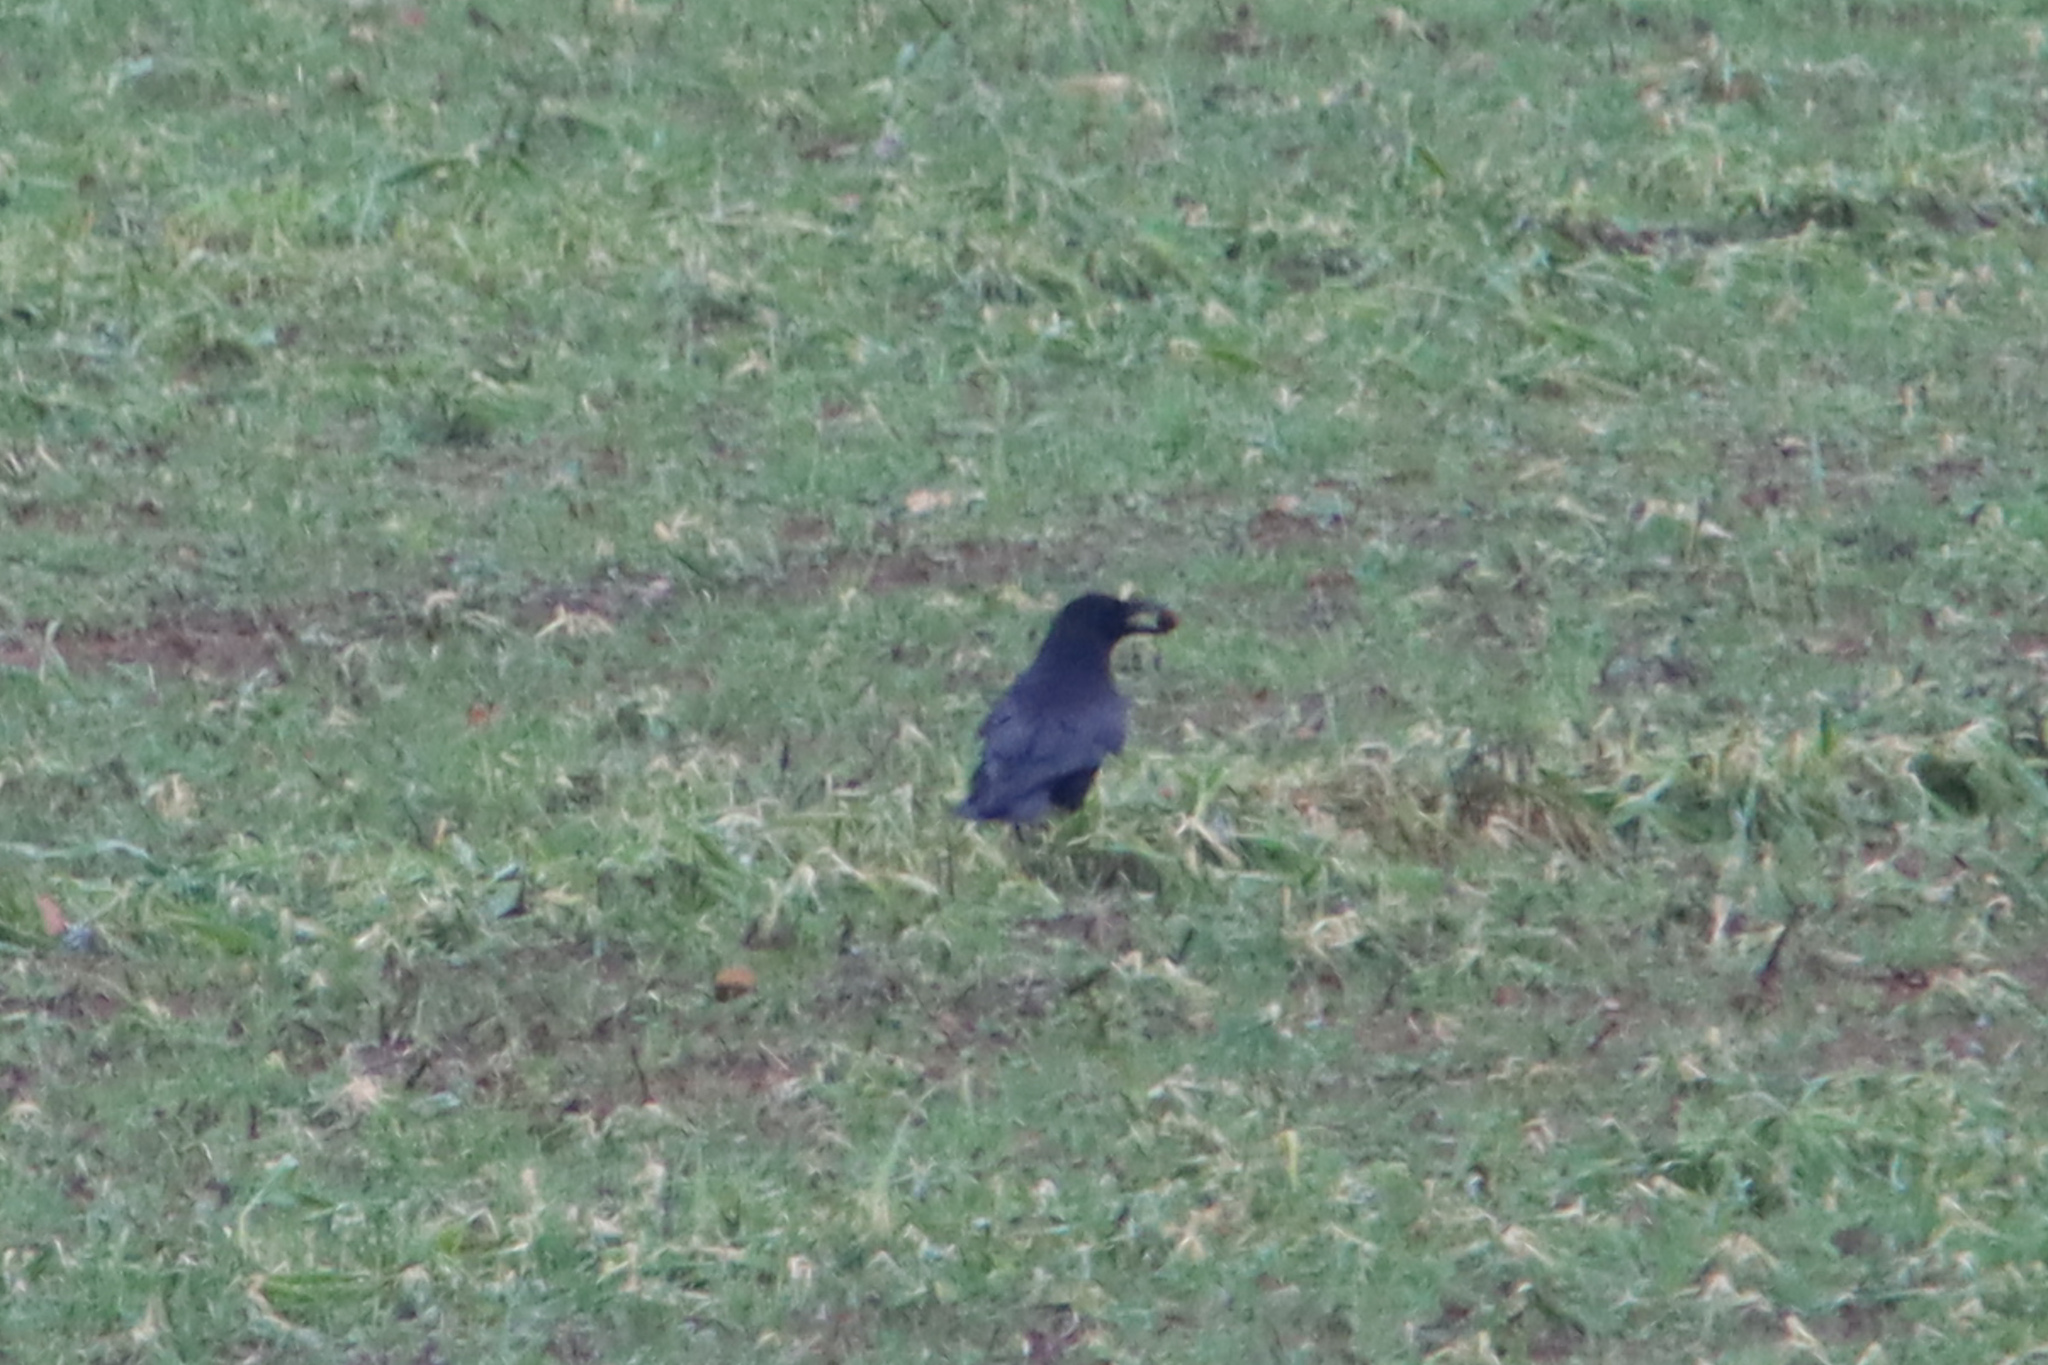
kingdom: Animalia
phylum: Chordata
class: Aves
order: Passeriformes
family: Corvidae
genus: Corvus
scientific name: Corvus corone
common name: Carrion crow
